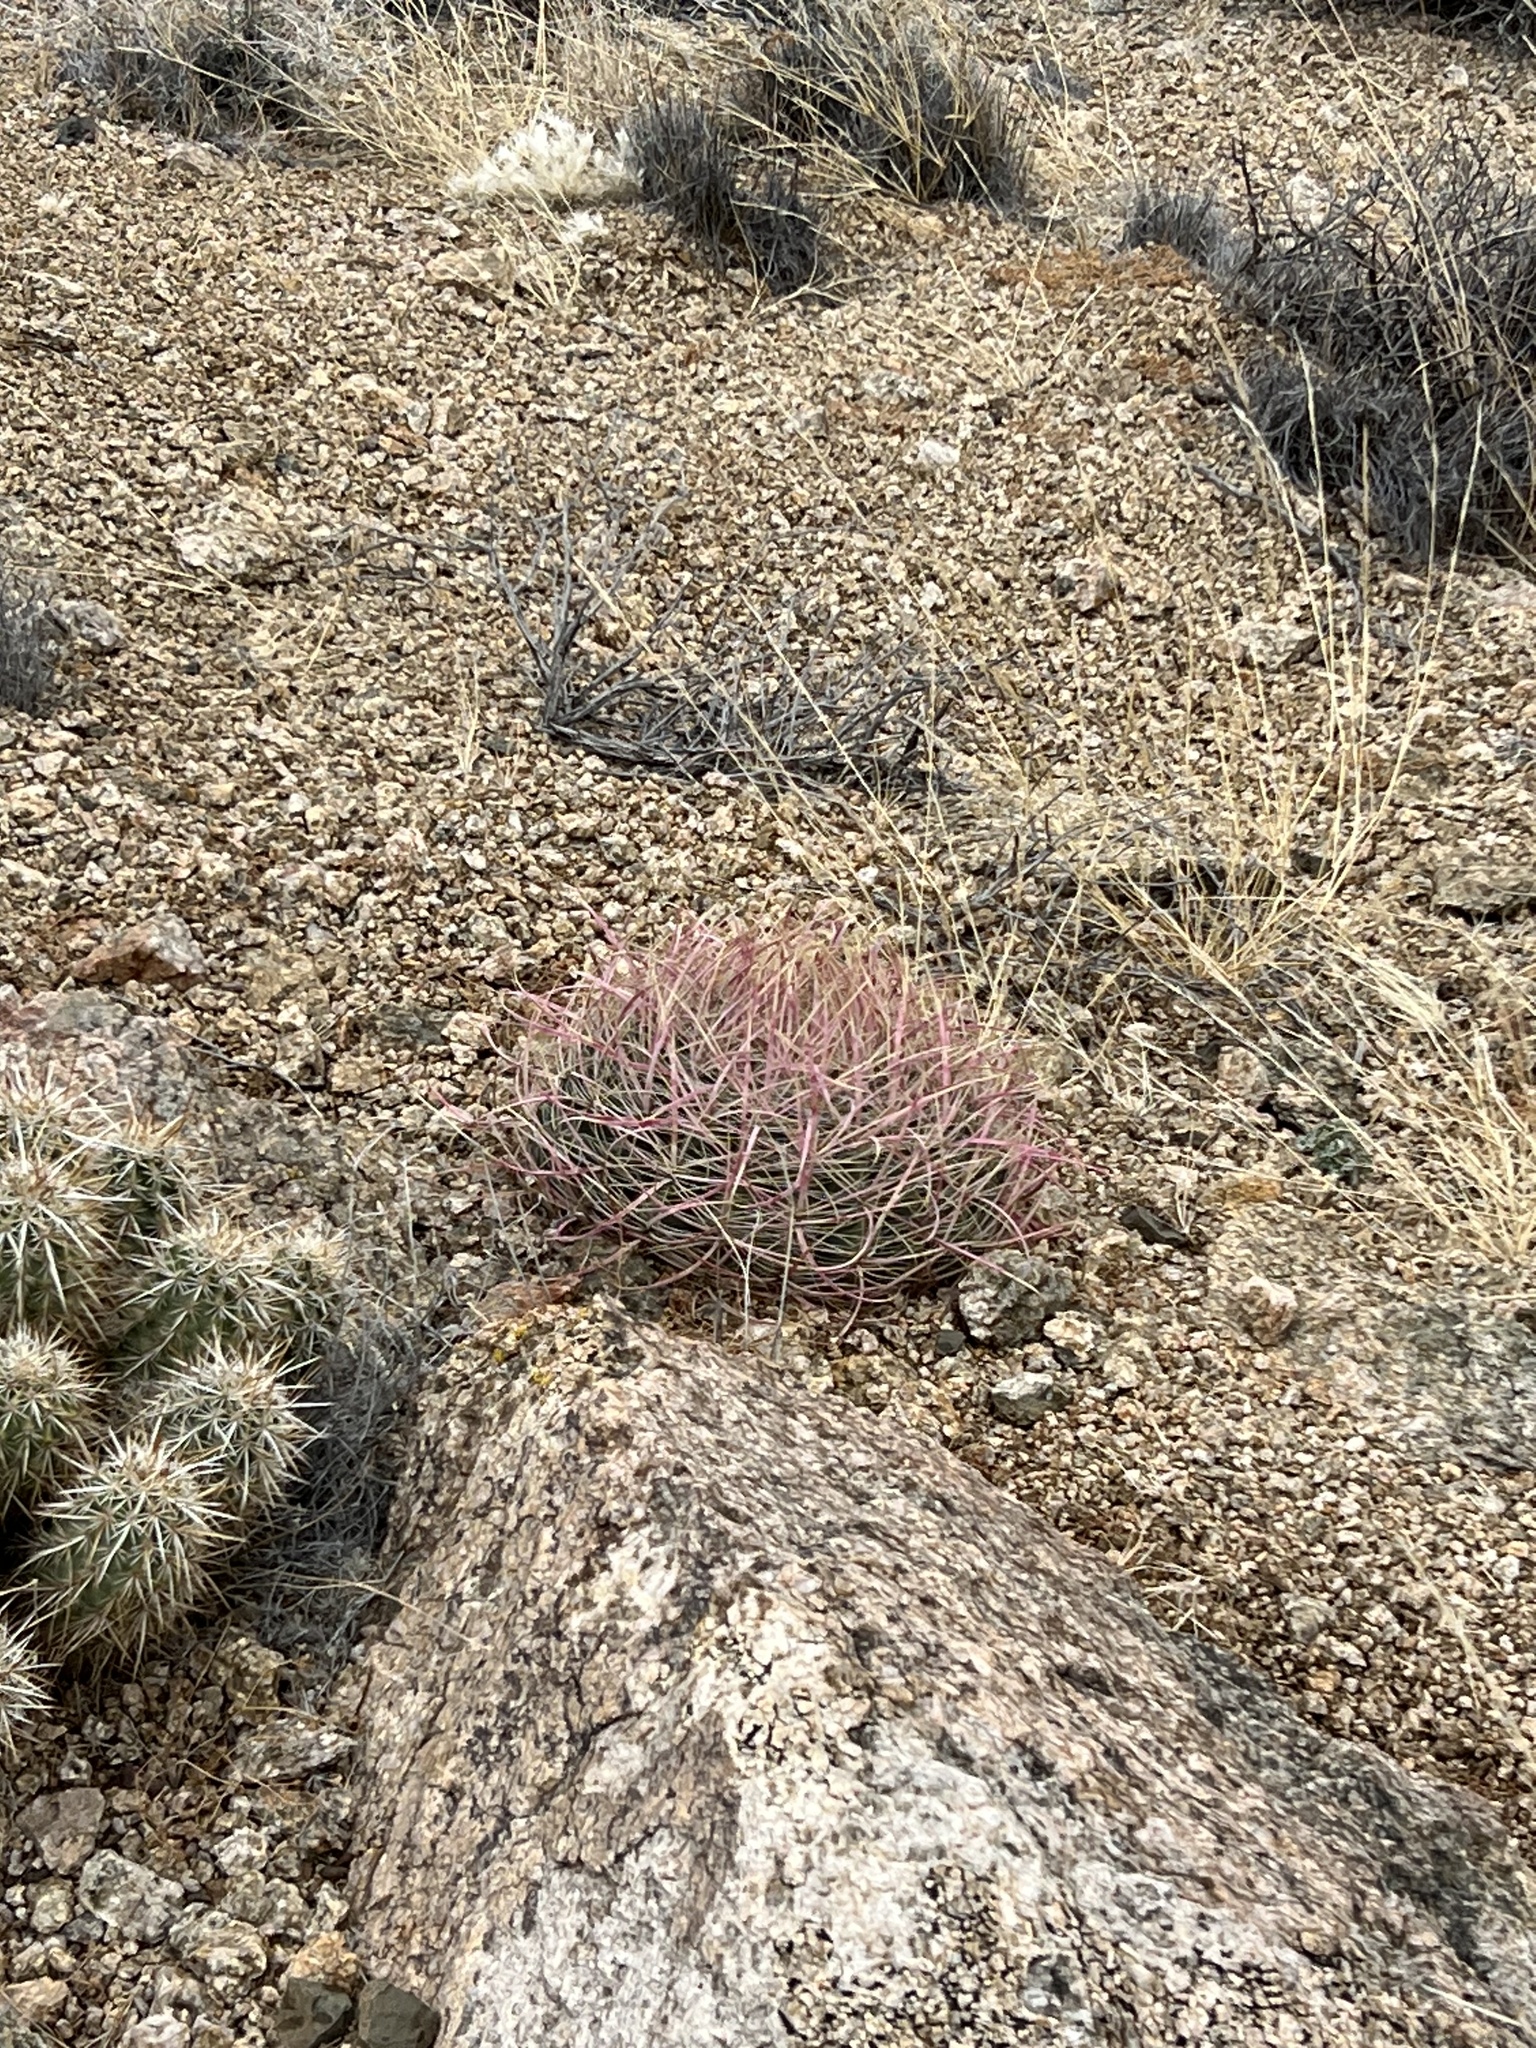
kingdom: Plantae
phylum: Tracheophyta
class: Magnoliopsida
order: Caryophyllales
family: Cactaceae
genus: Ferocactus
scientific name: Ferocactus cylindraceus
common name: California barrel cactus
